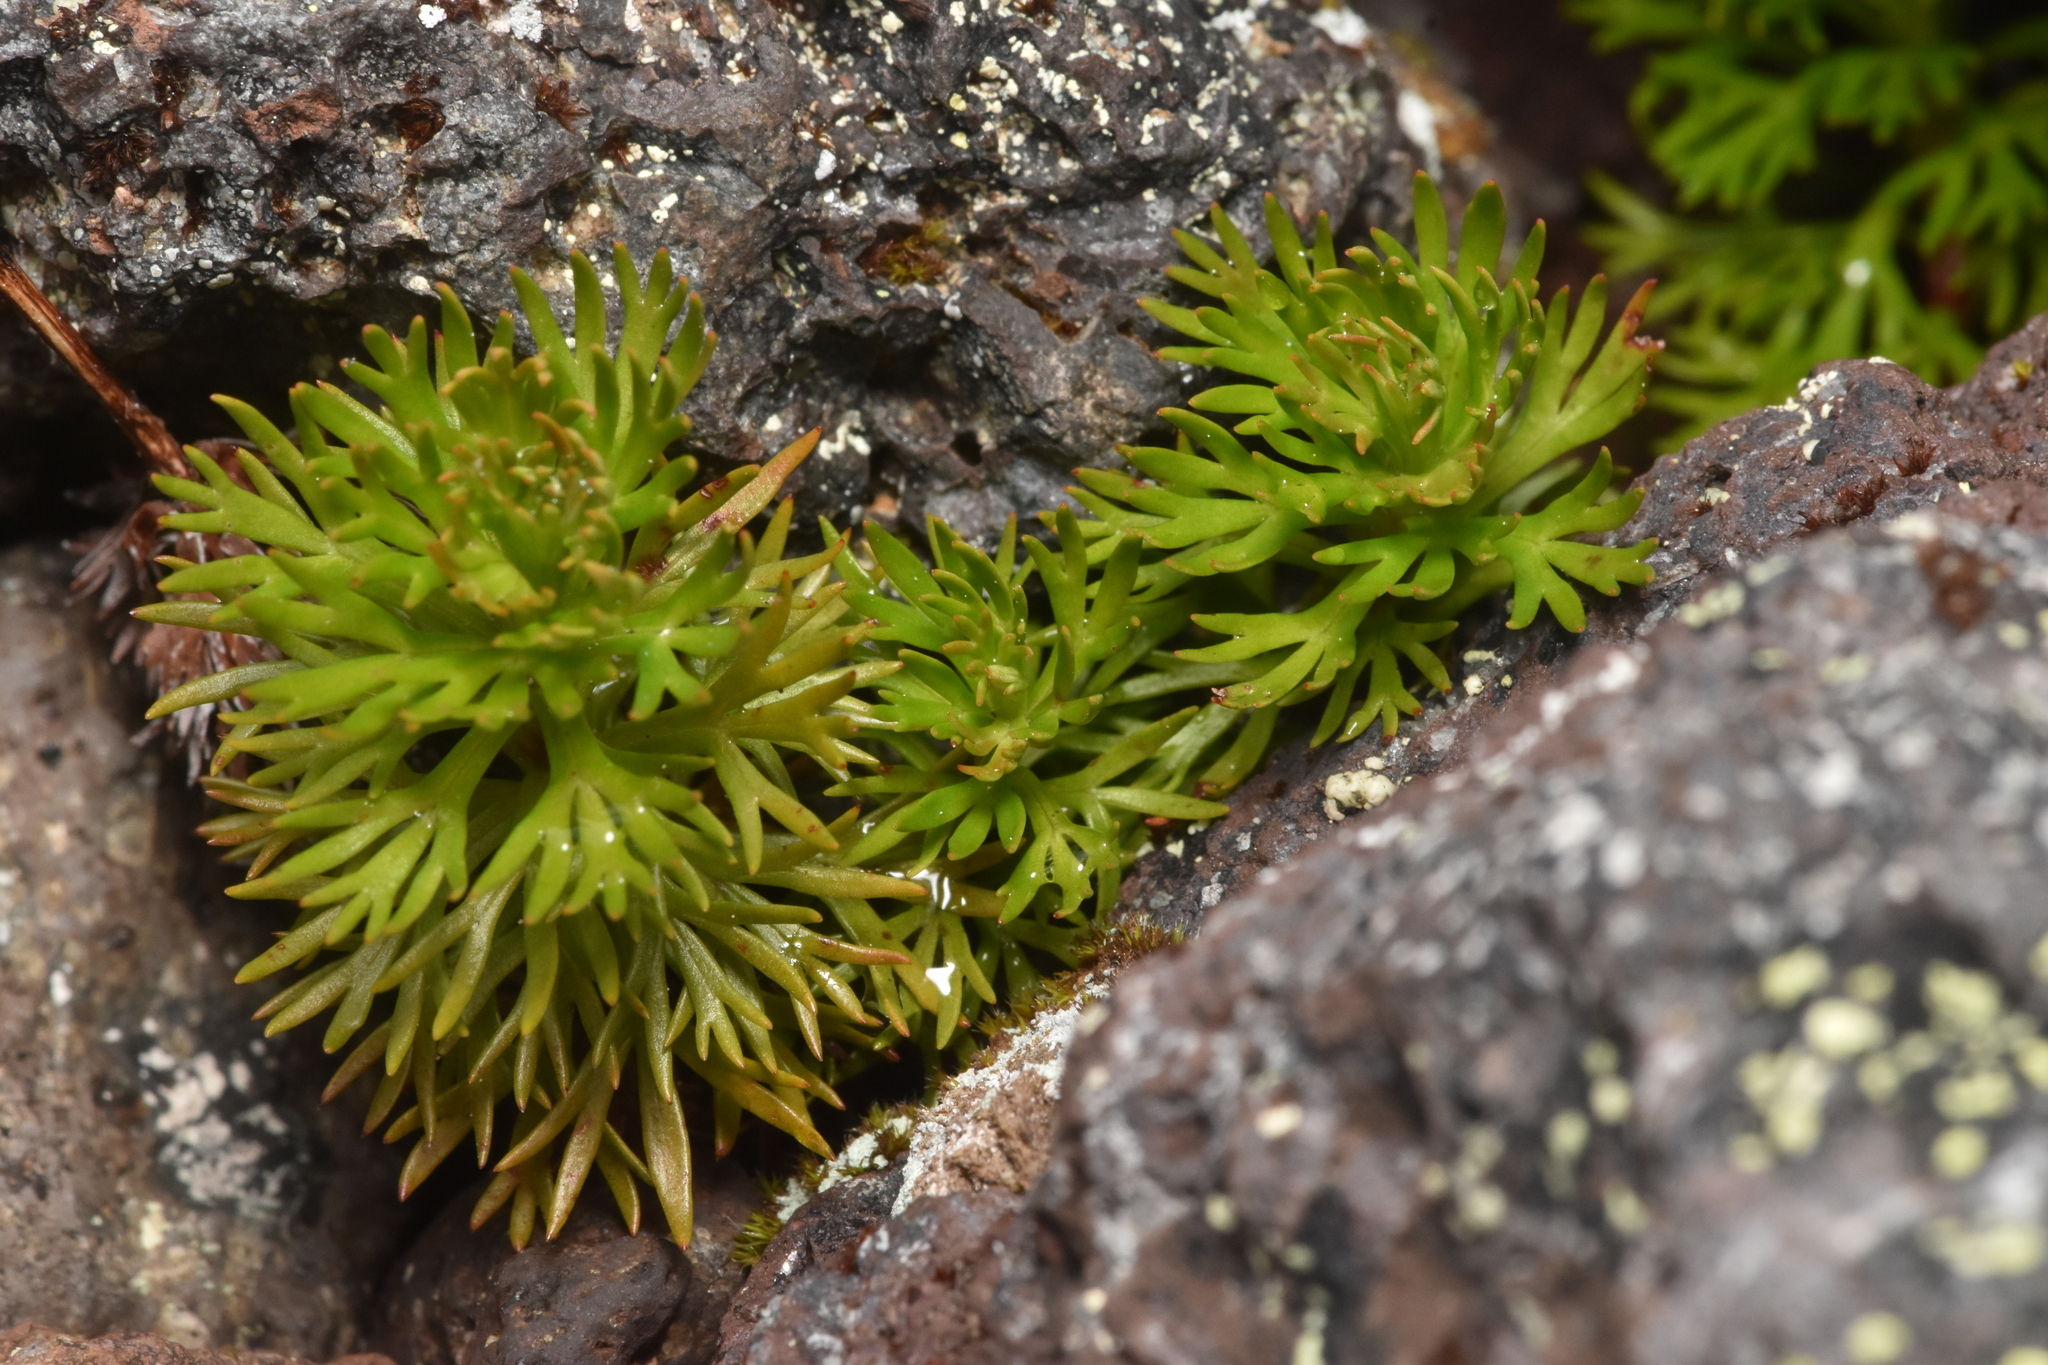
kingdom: Plantae
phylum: Tracheophyta
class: Magnoliopsida
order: Rosales
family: Rosaceae
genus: Luetkea
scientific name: Luetkea pectinata
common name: Partridgefoot
